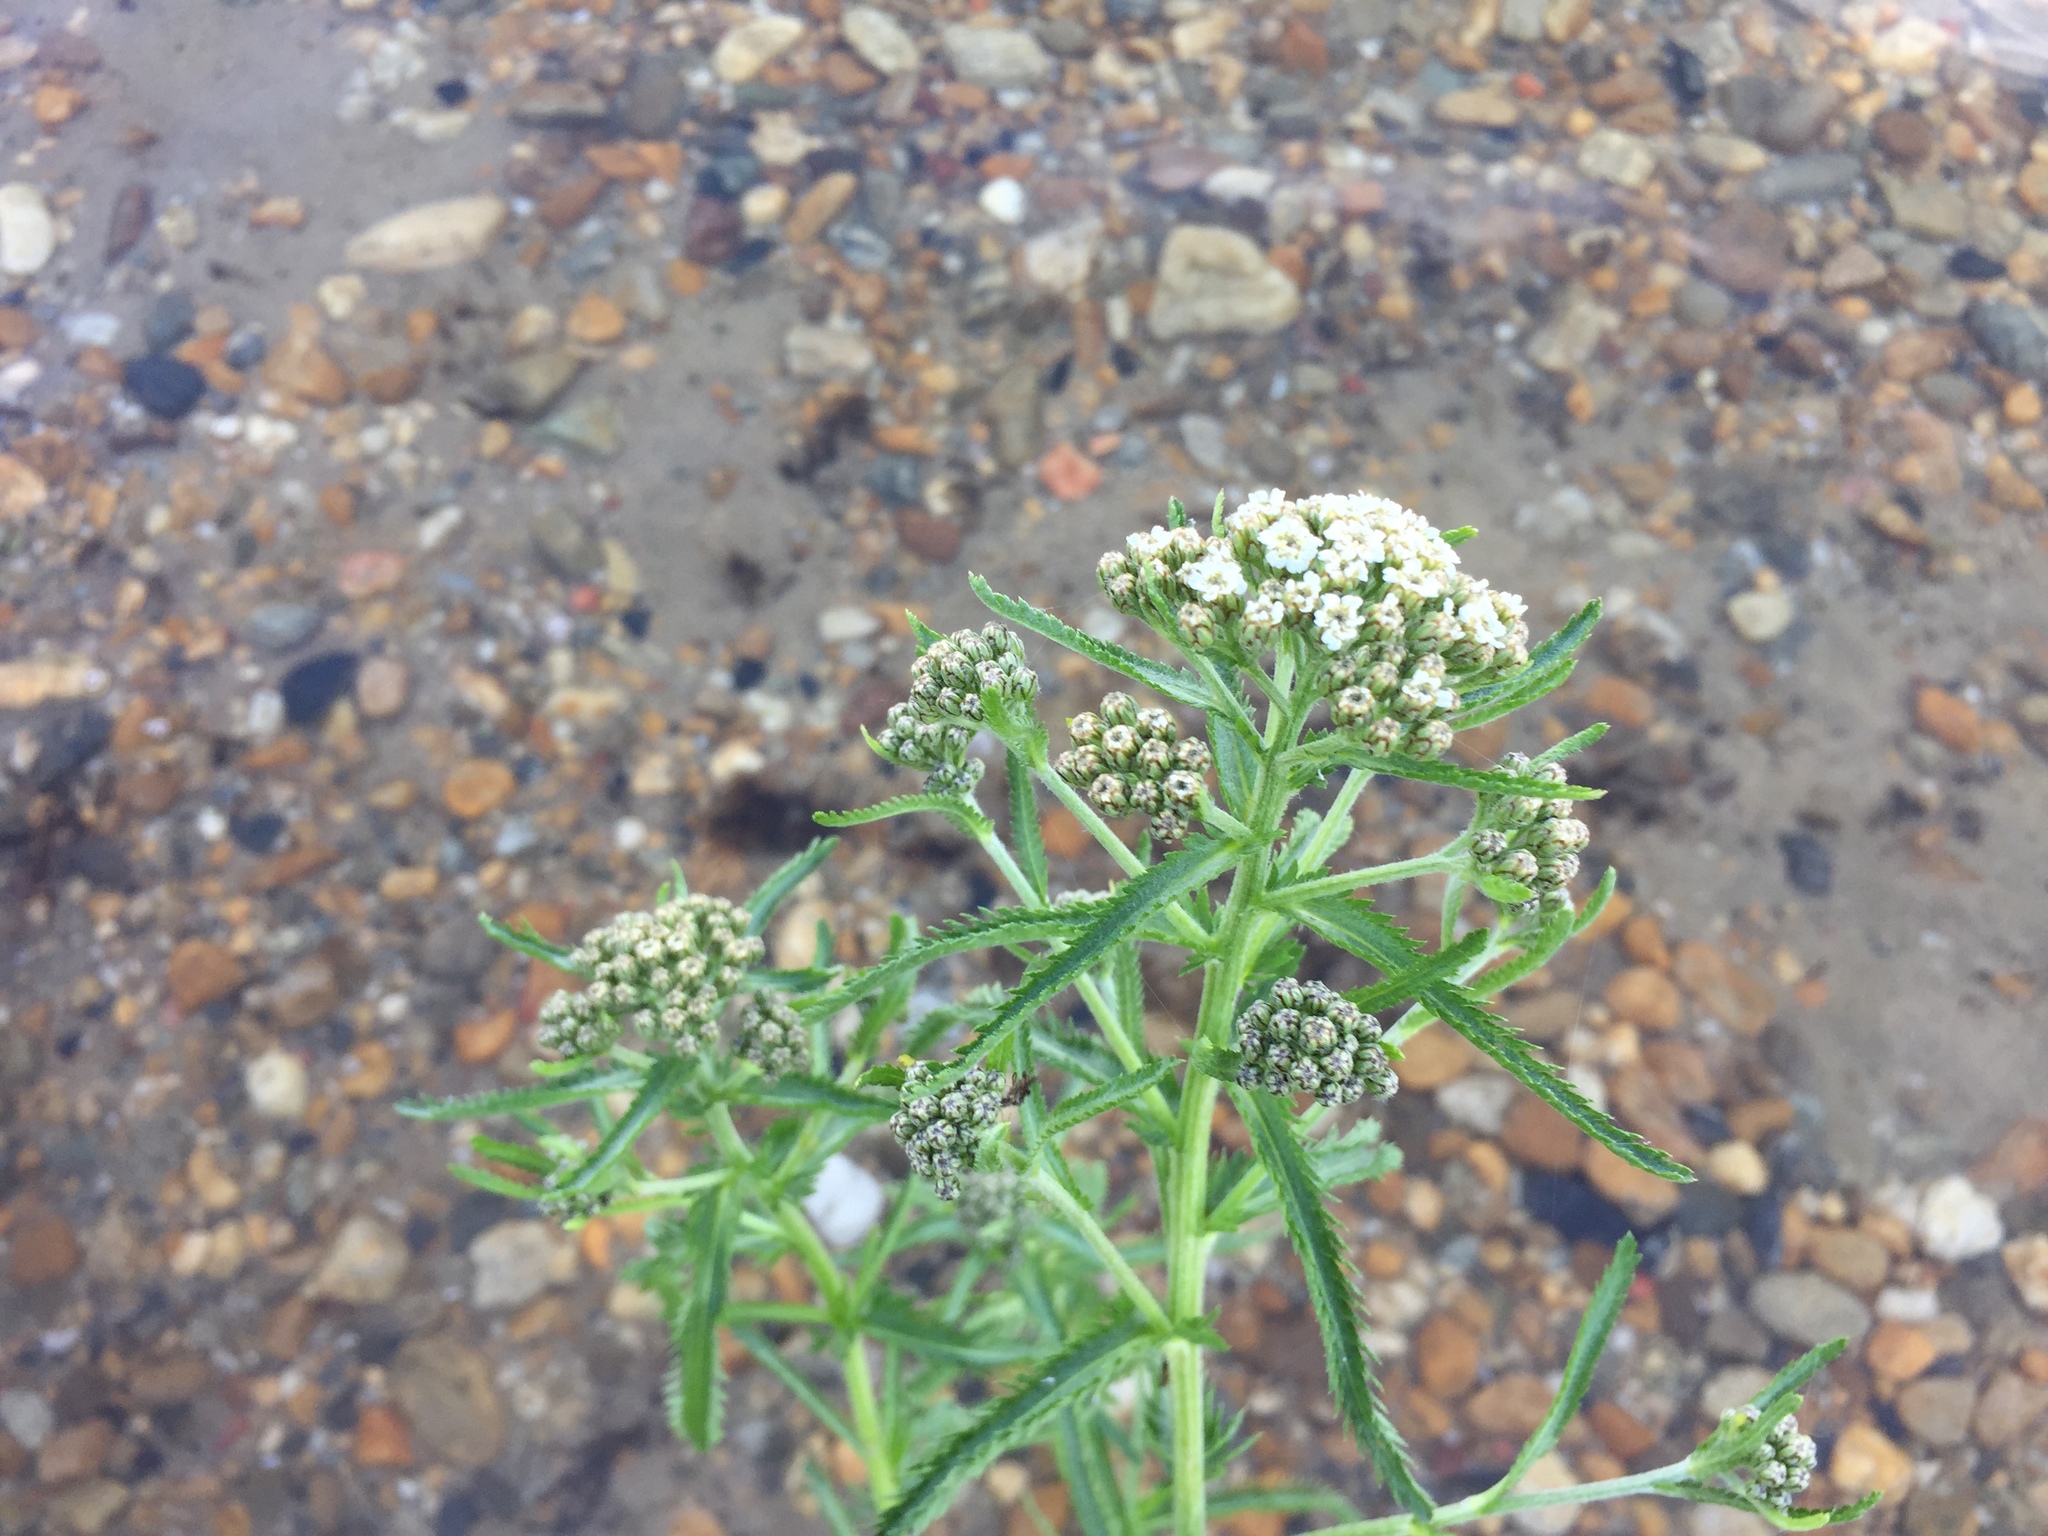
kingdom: Plantae
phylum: Tracheophyta
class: Magnoliopsida
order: Asterales
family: Asteraceae
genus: Achillea
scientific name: Achillea alpina
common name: Siberian yarrow
